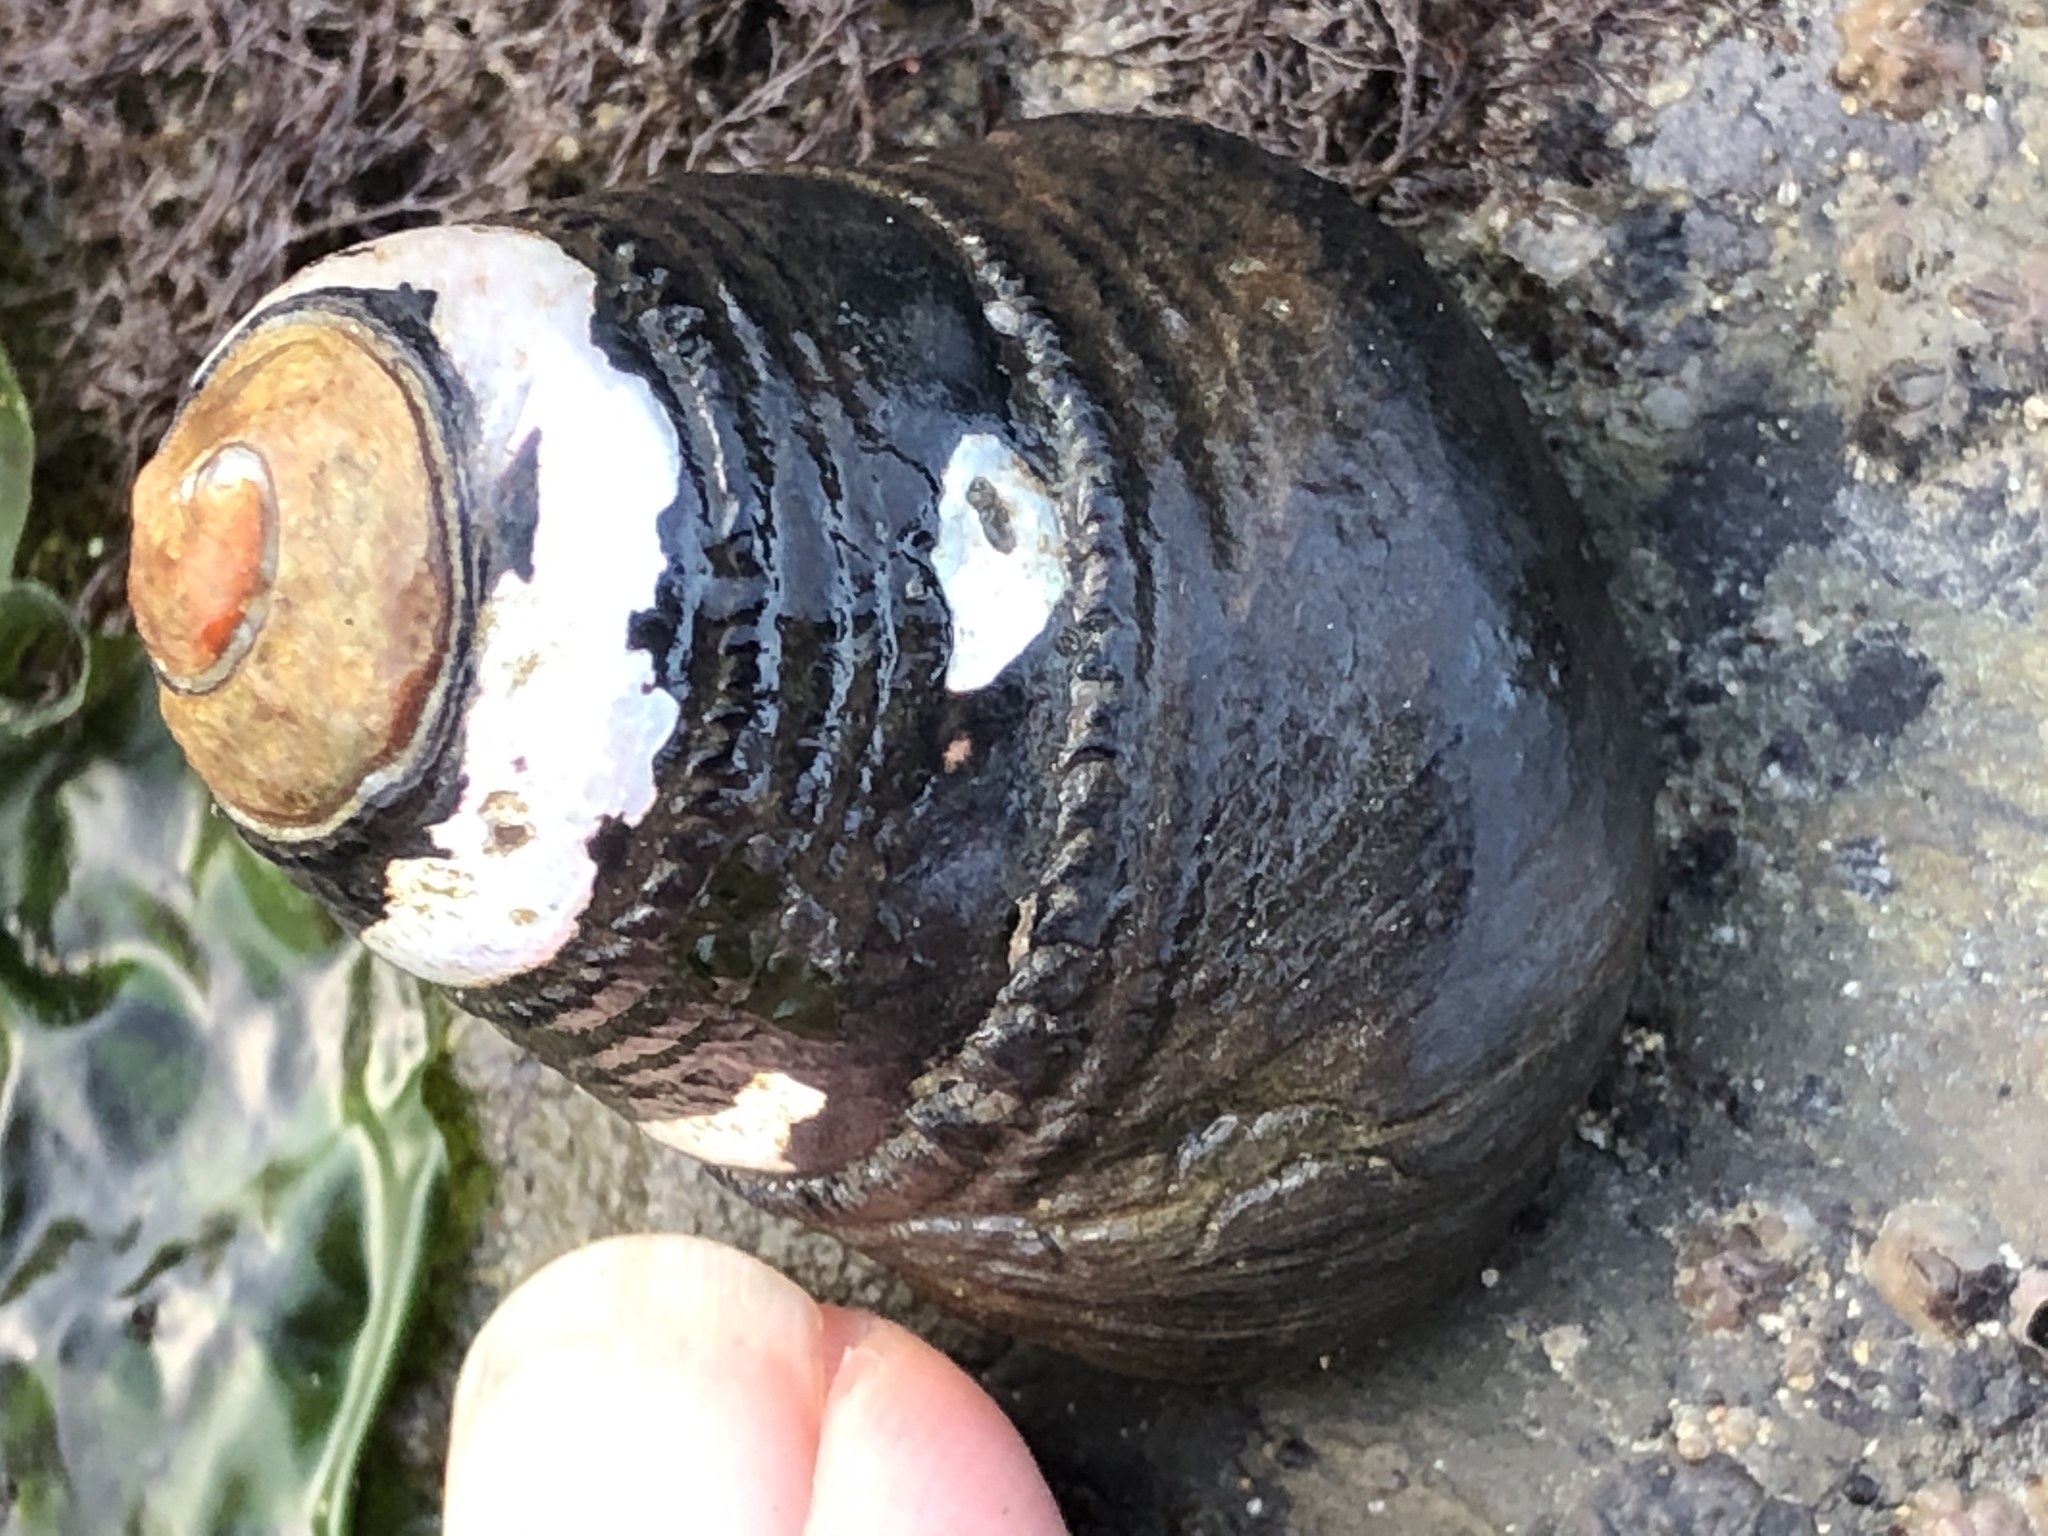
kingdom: Animalia
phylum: Mollusca
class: Gastropoda
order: Trochida
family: Tegulidae
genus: Tegula
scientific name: Tegula funebralis
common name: Black tegula
